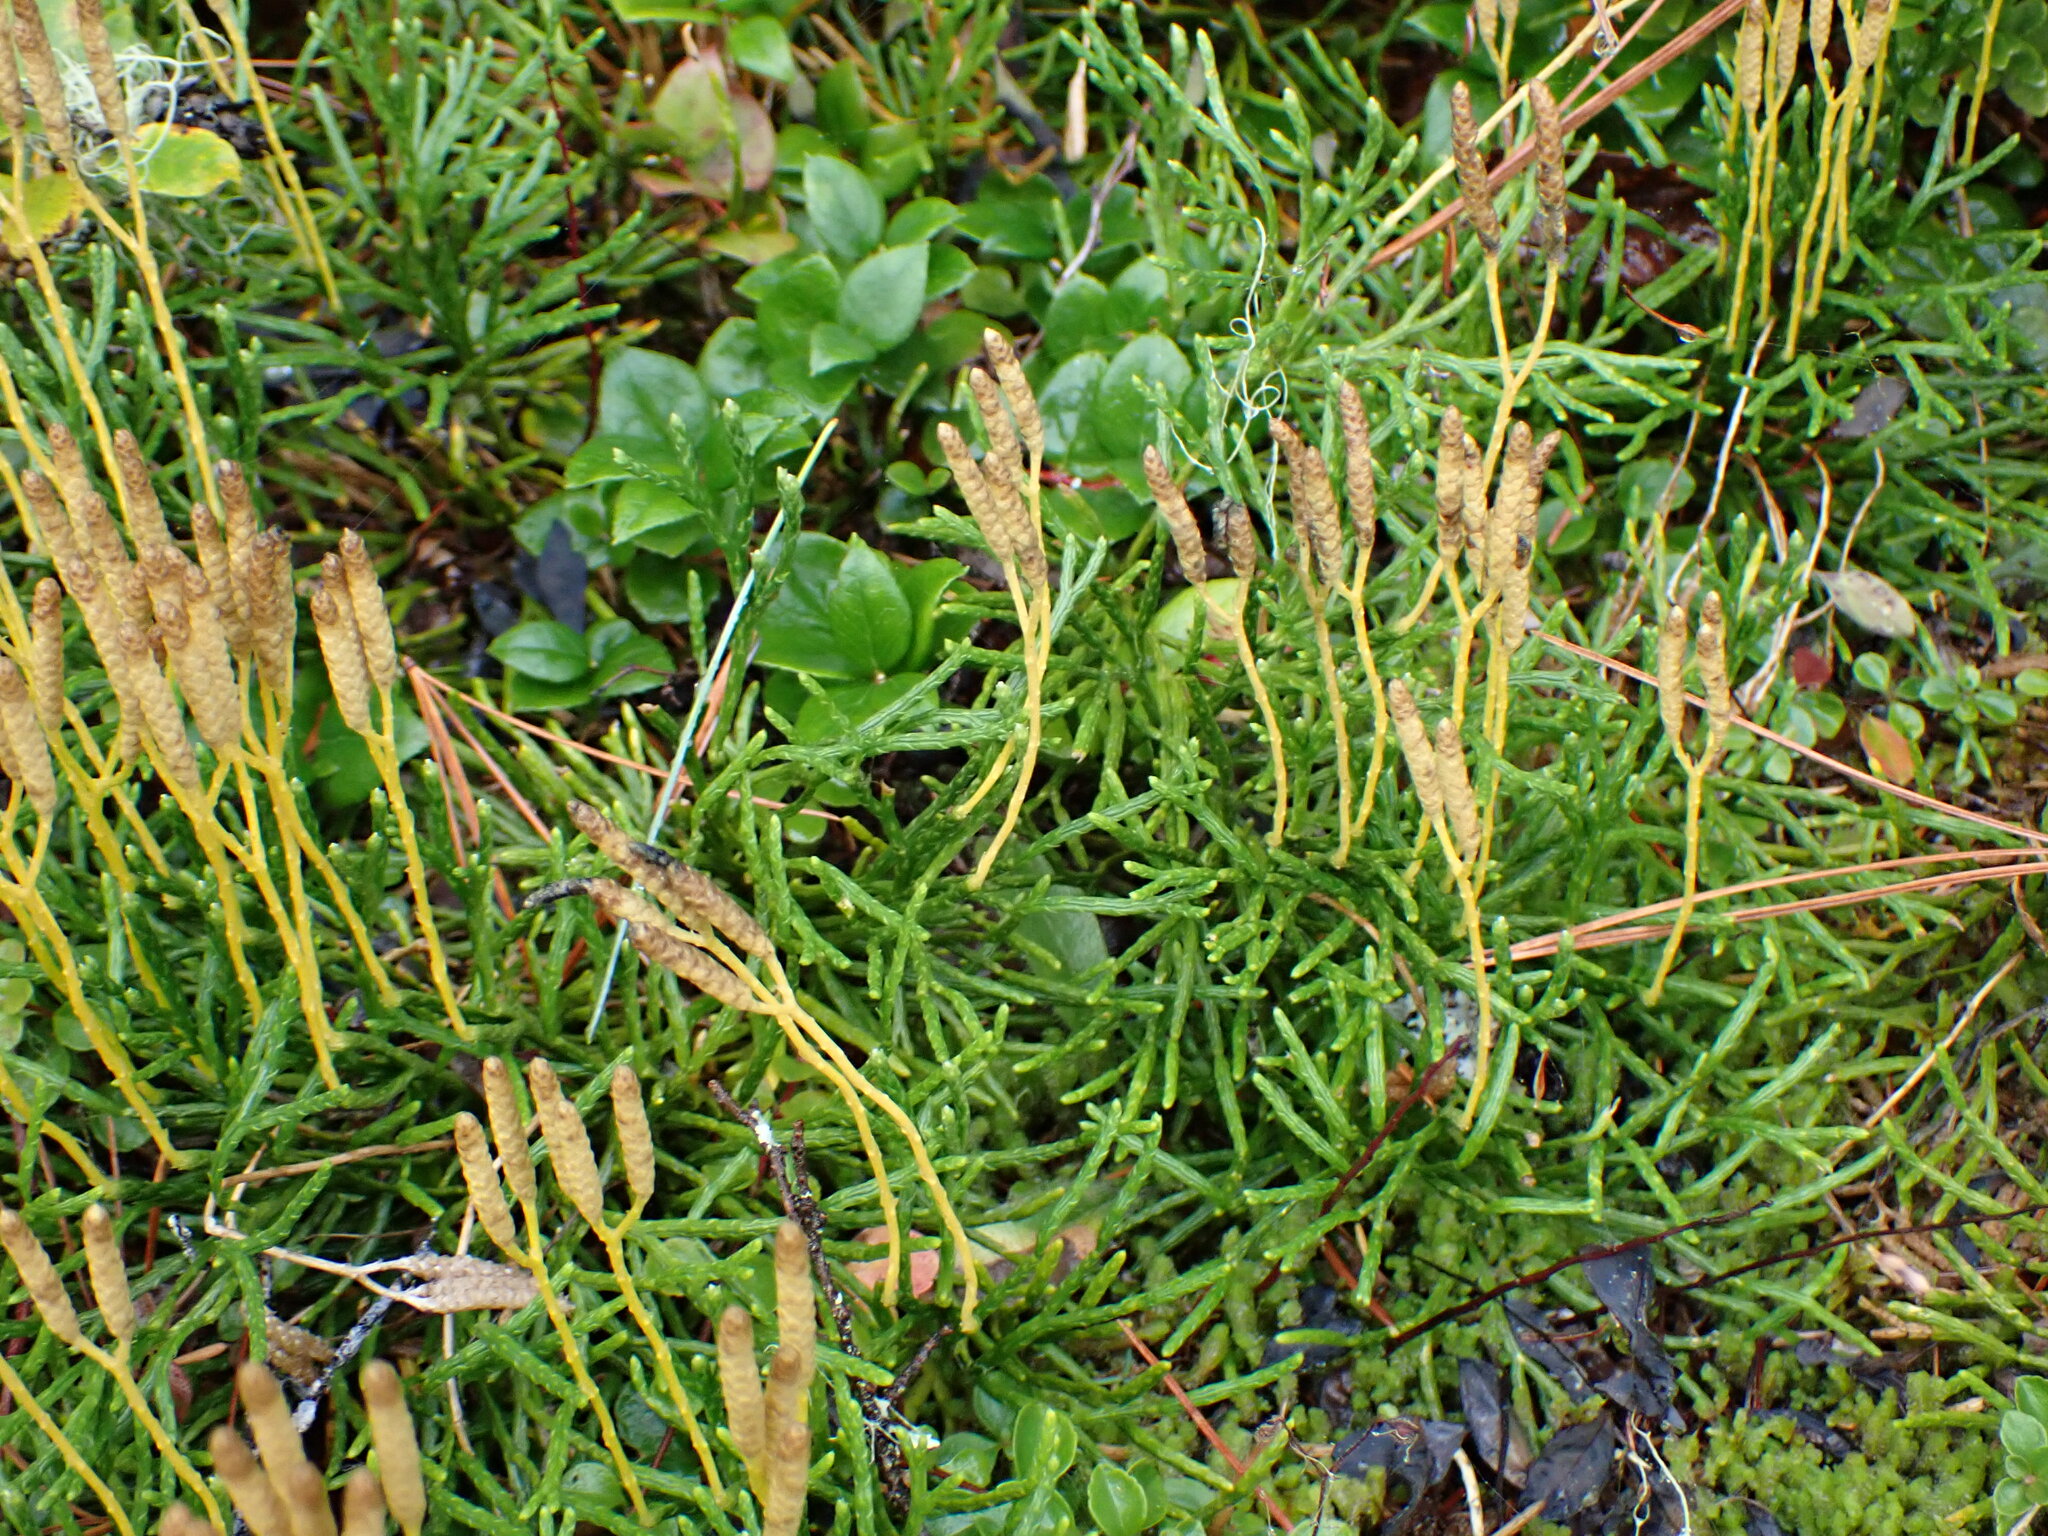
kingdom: Plantae
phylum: Tracheophyta
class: Lycopodiopsida
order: Lycopodiales
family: Lycopodiaceae
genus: Diphasiastrum
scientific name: Diphasiastrum complanatum
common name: Northern running-pine
